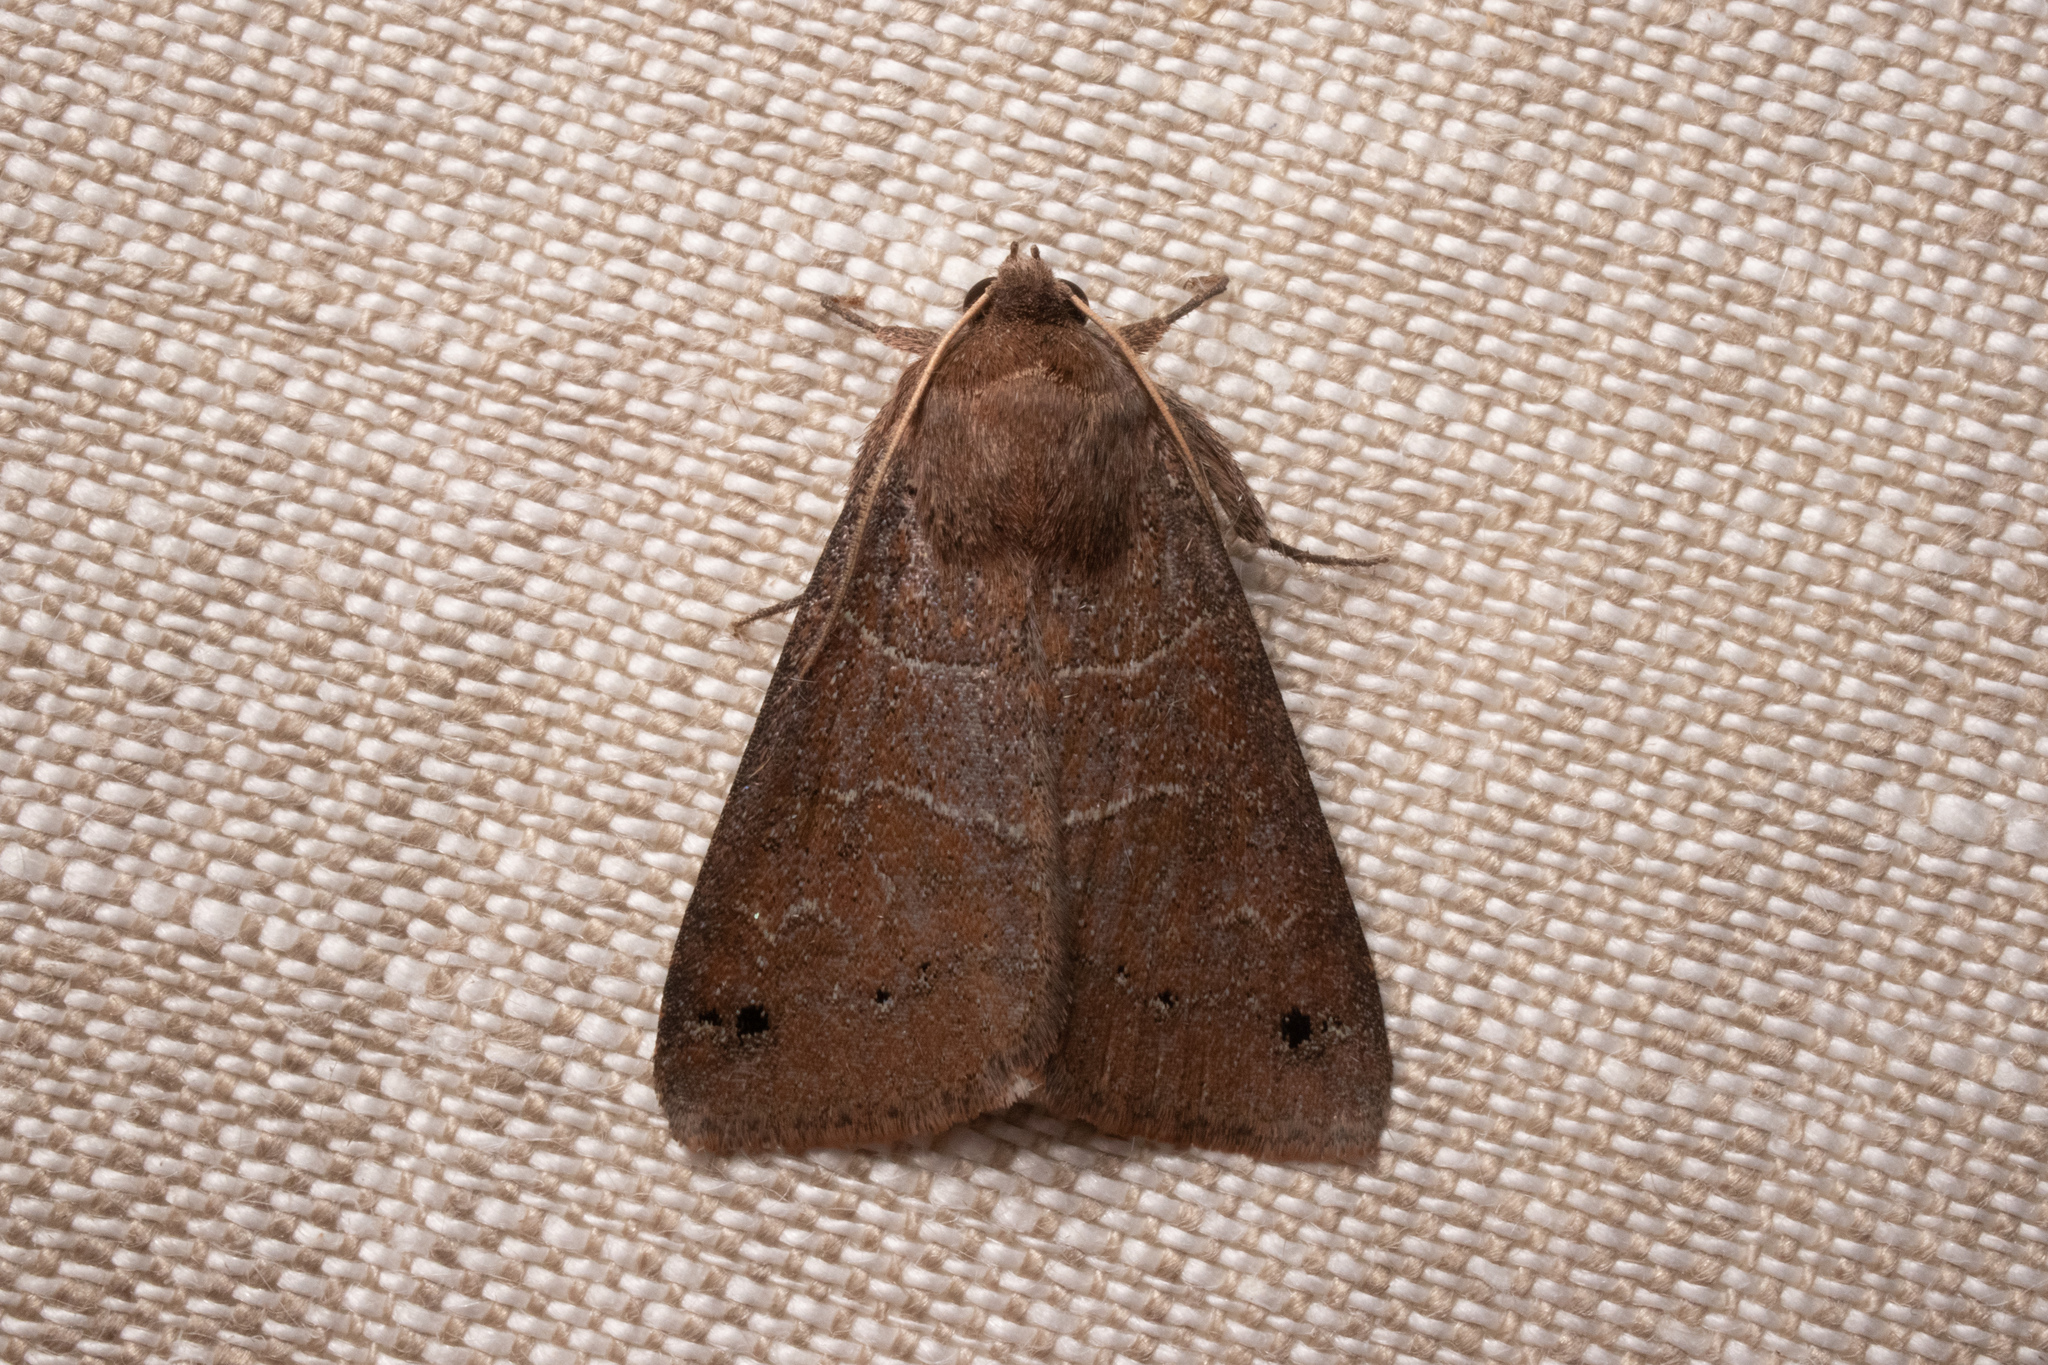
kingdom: Animalia
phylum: Arthropoda
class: Insecta
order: Lepidoptera
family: Erebidae
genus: Cissusa
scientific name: Cissusa spadix
